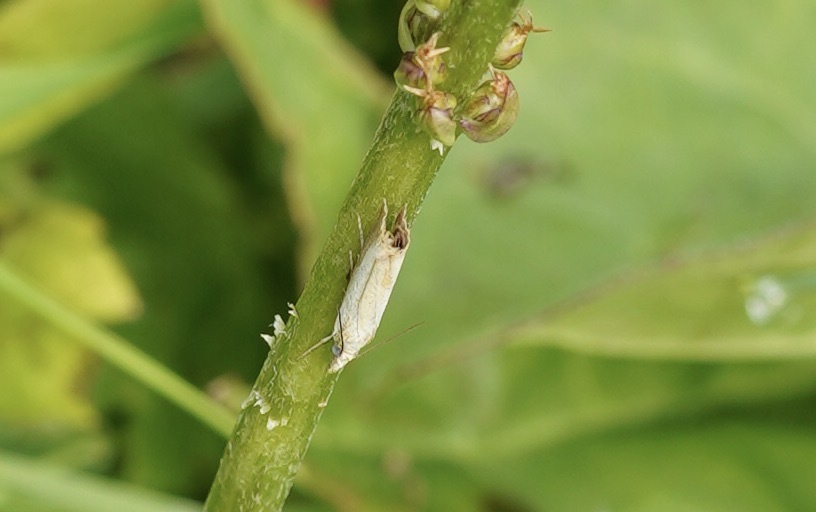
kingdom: Animalia
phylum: Arthropoda
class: Insecta
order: Lepidoptera
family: Crambidae
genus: Agriphila
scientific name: Agriphila straminella
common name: Straw grass-veneer
